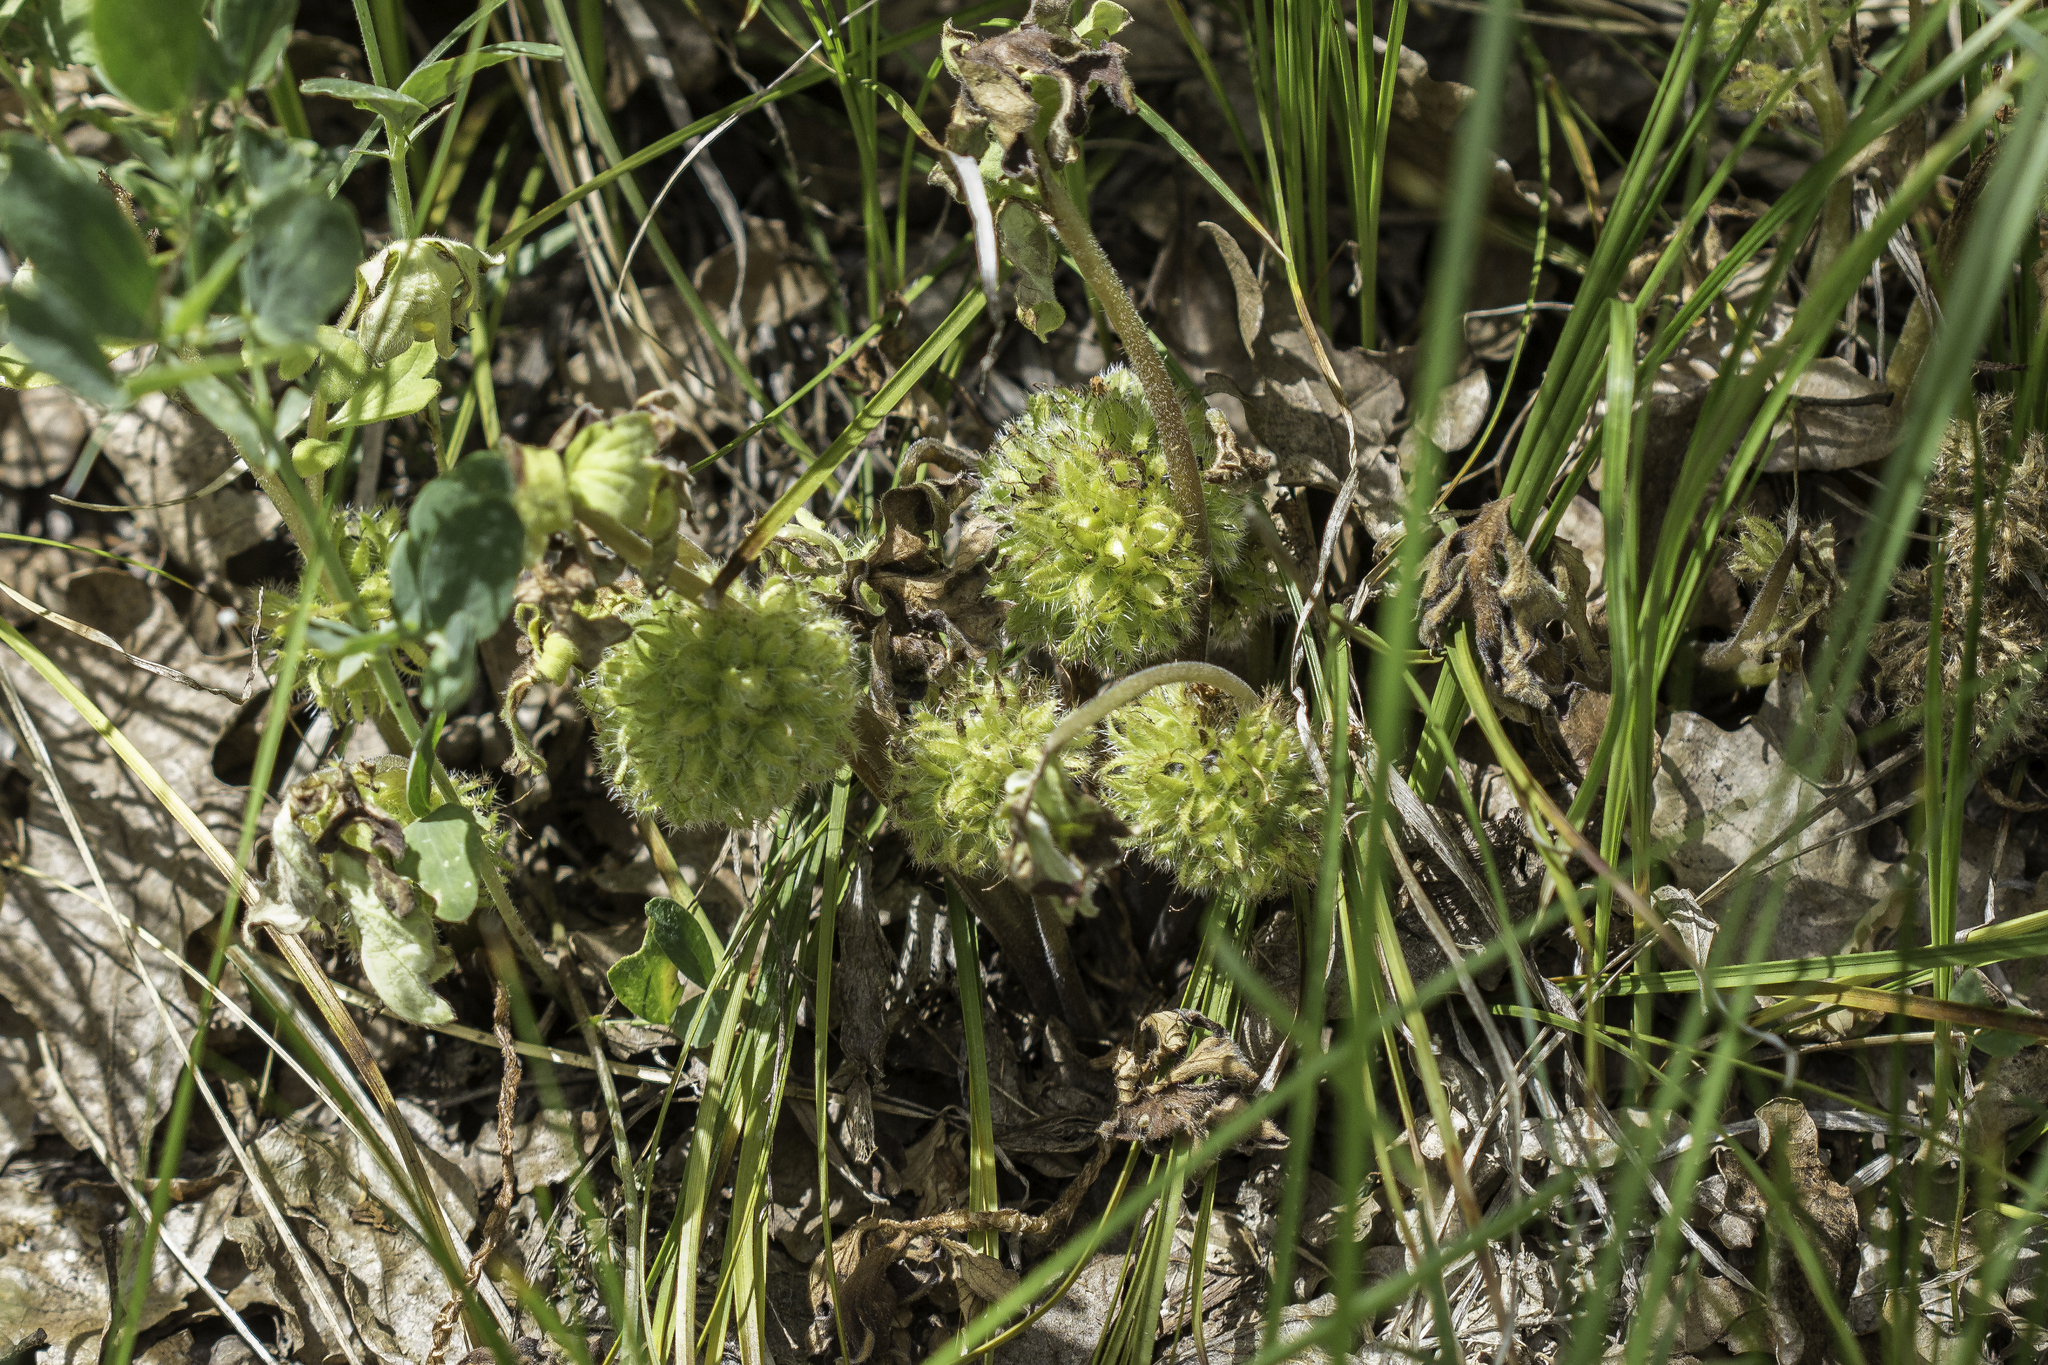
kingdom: Plantae
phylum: Tracheophyta
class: Magnoliopsida
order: Boraginales
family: Hydrophyllaceae
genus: Hydrophyllum
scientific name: Hydrophyllum capitatum
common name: Woollen-breeches
